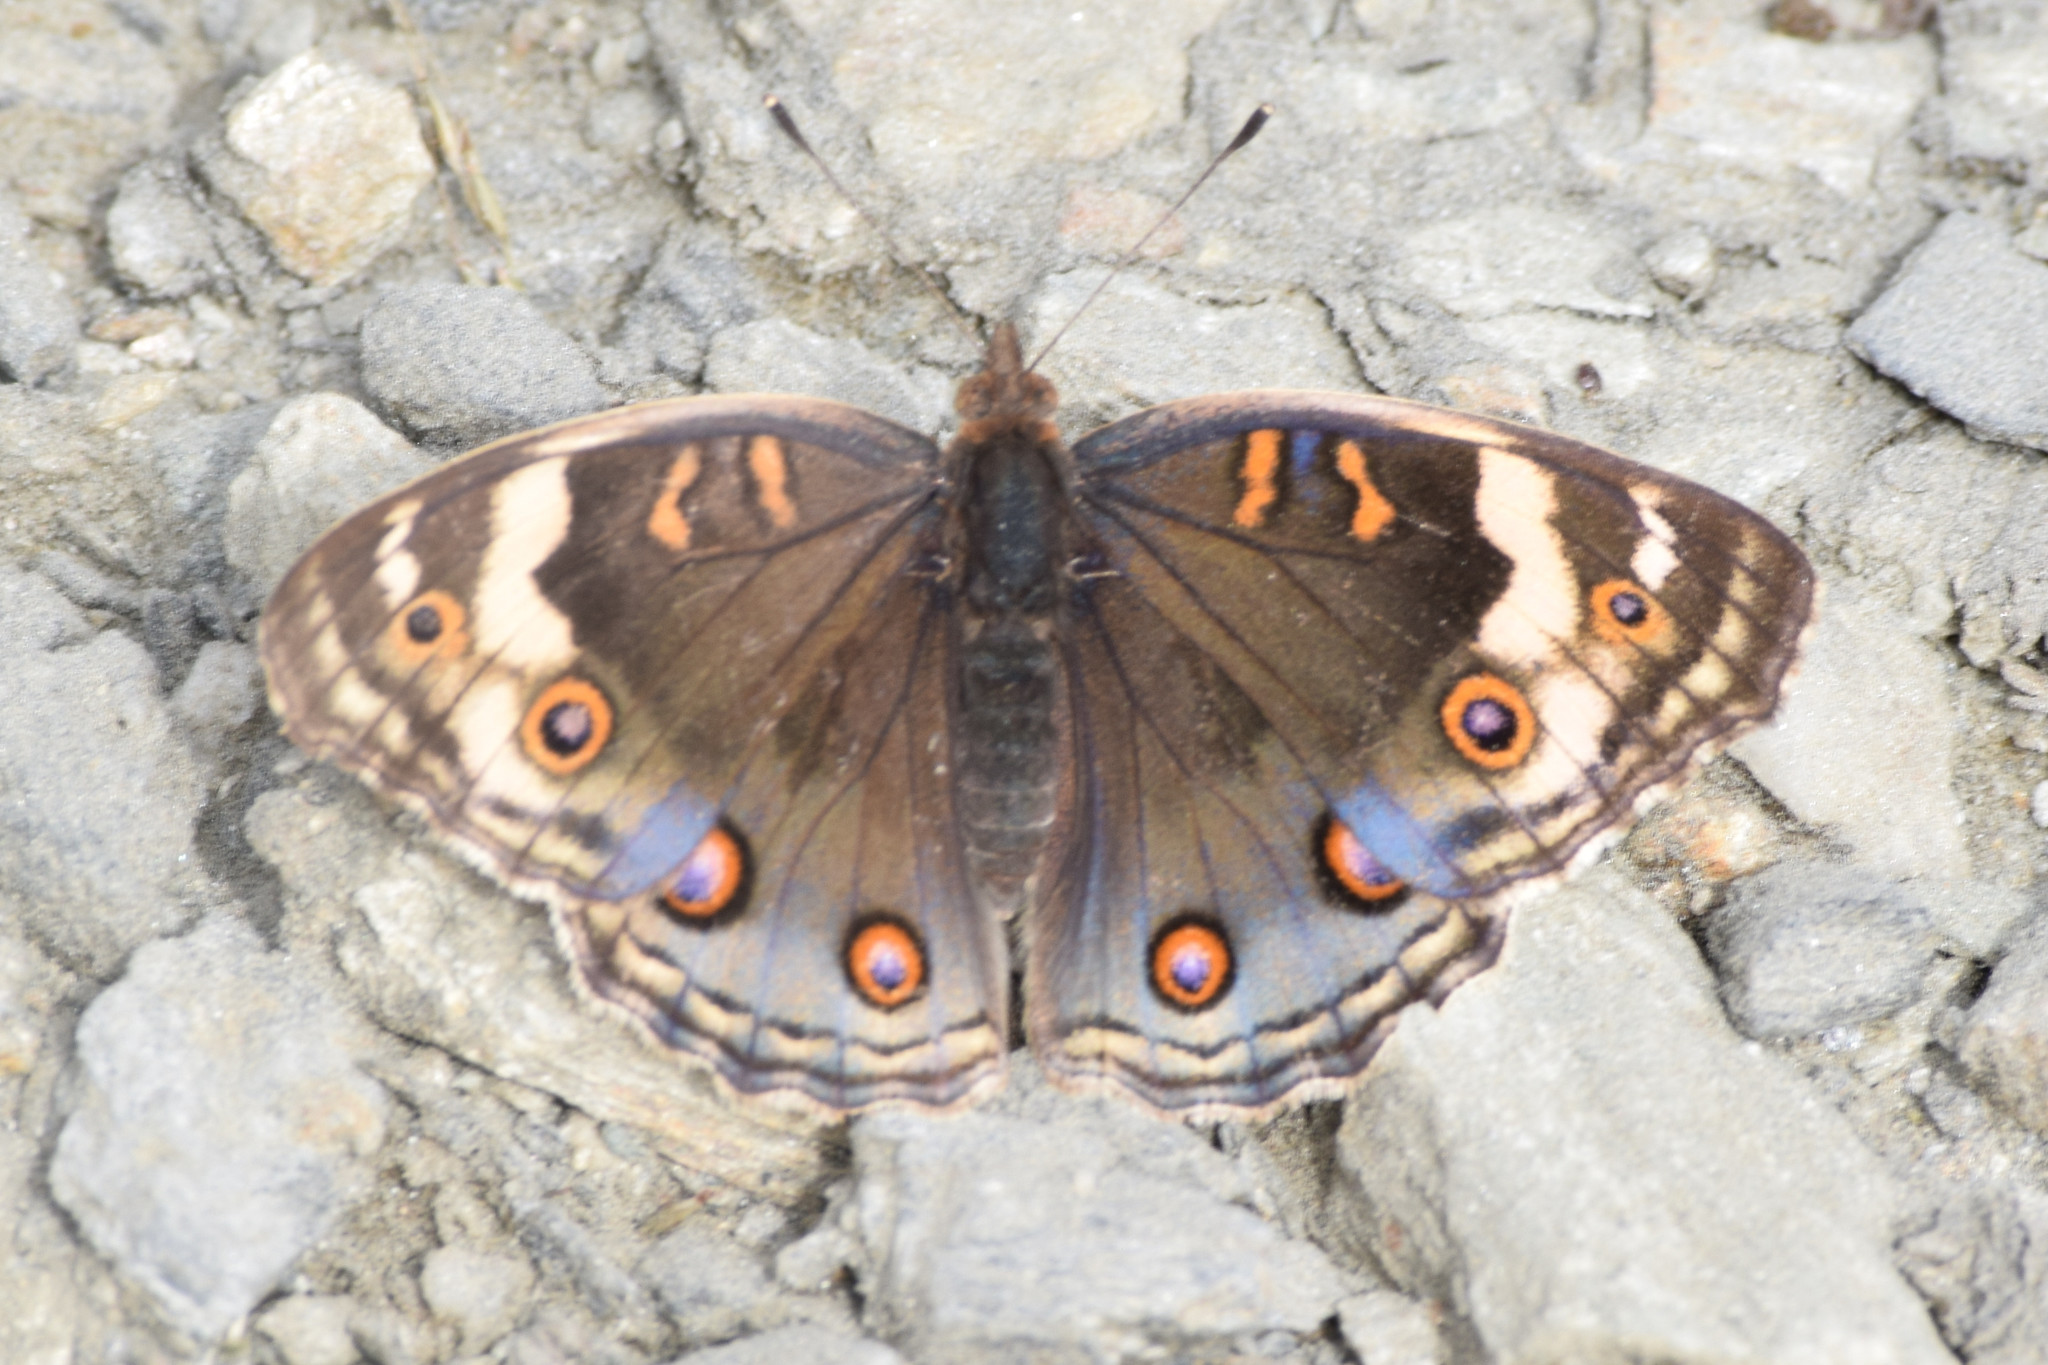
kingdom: Animalia
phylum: Arthropoda
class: Insecta
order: Lepidoptera
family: Nymphalidae
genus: Junonia
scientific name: Junonia orithya
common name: Blue pansy
